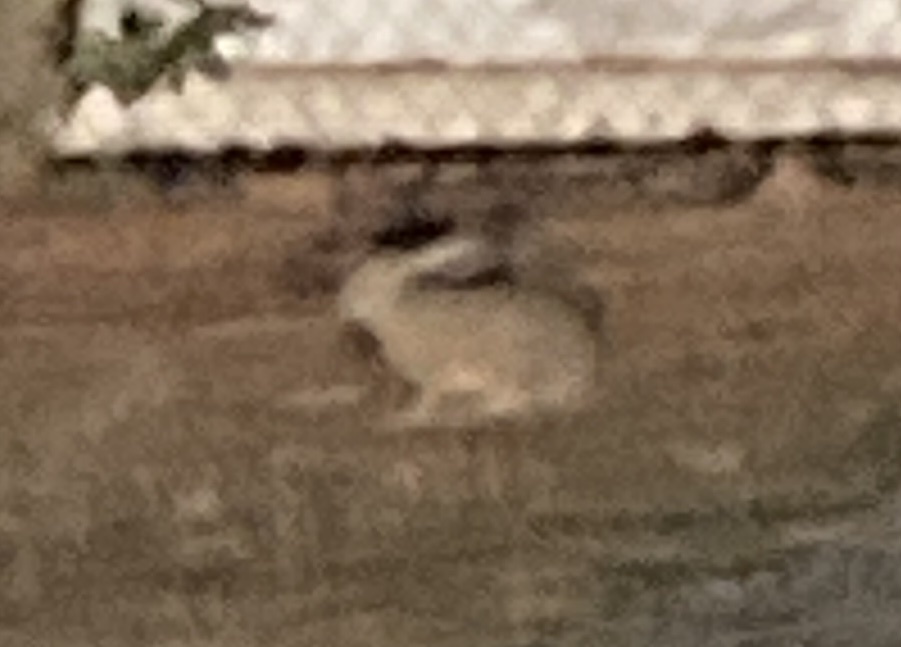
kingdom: Animalia
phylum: Chordata
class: Mammalia
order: Lagomorpha
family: Leporidae
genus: Lepus
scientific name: Lepus californicus
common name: Black-tailed jackrabbit
